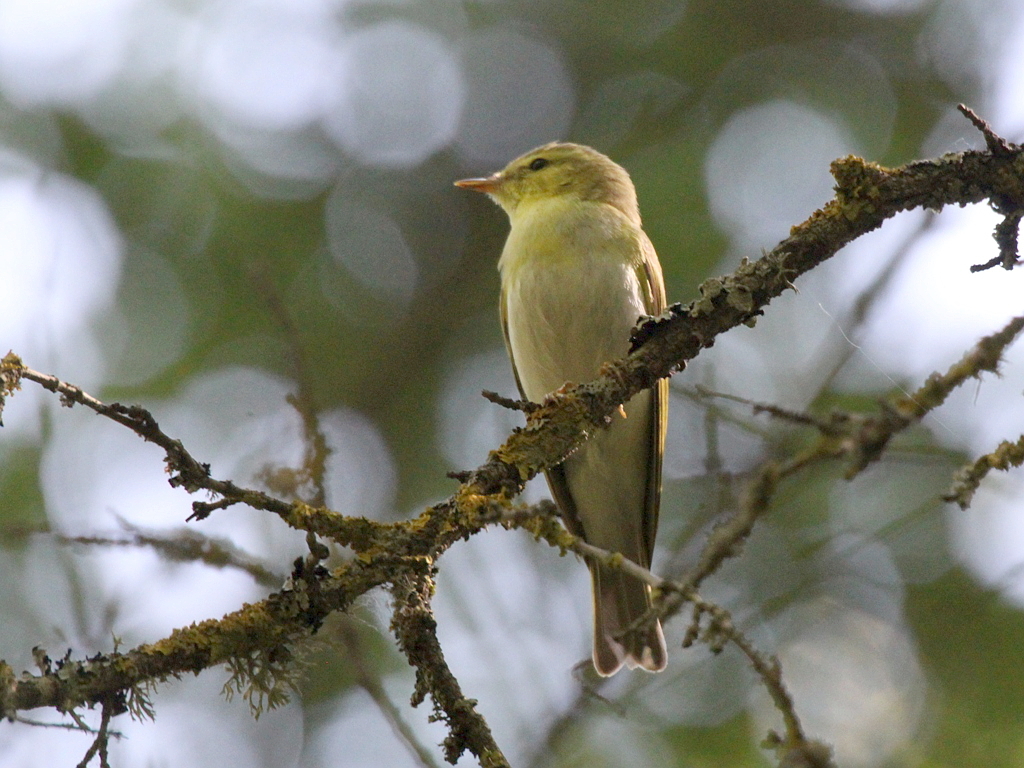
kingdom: Animalia
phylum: Chordata
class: Aves
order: Passeriformes
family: Phylloscopidae
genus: Phylloscopus
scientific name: Phylloscopus sibillatrix
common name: Wood warbler
